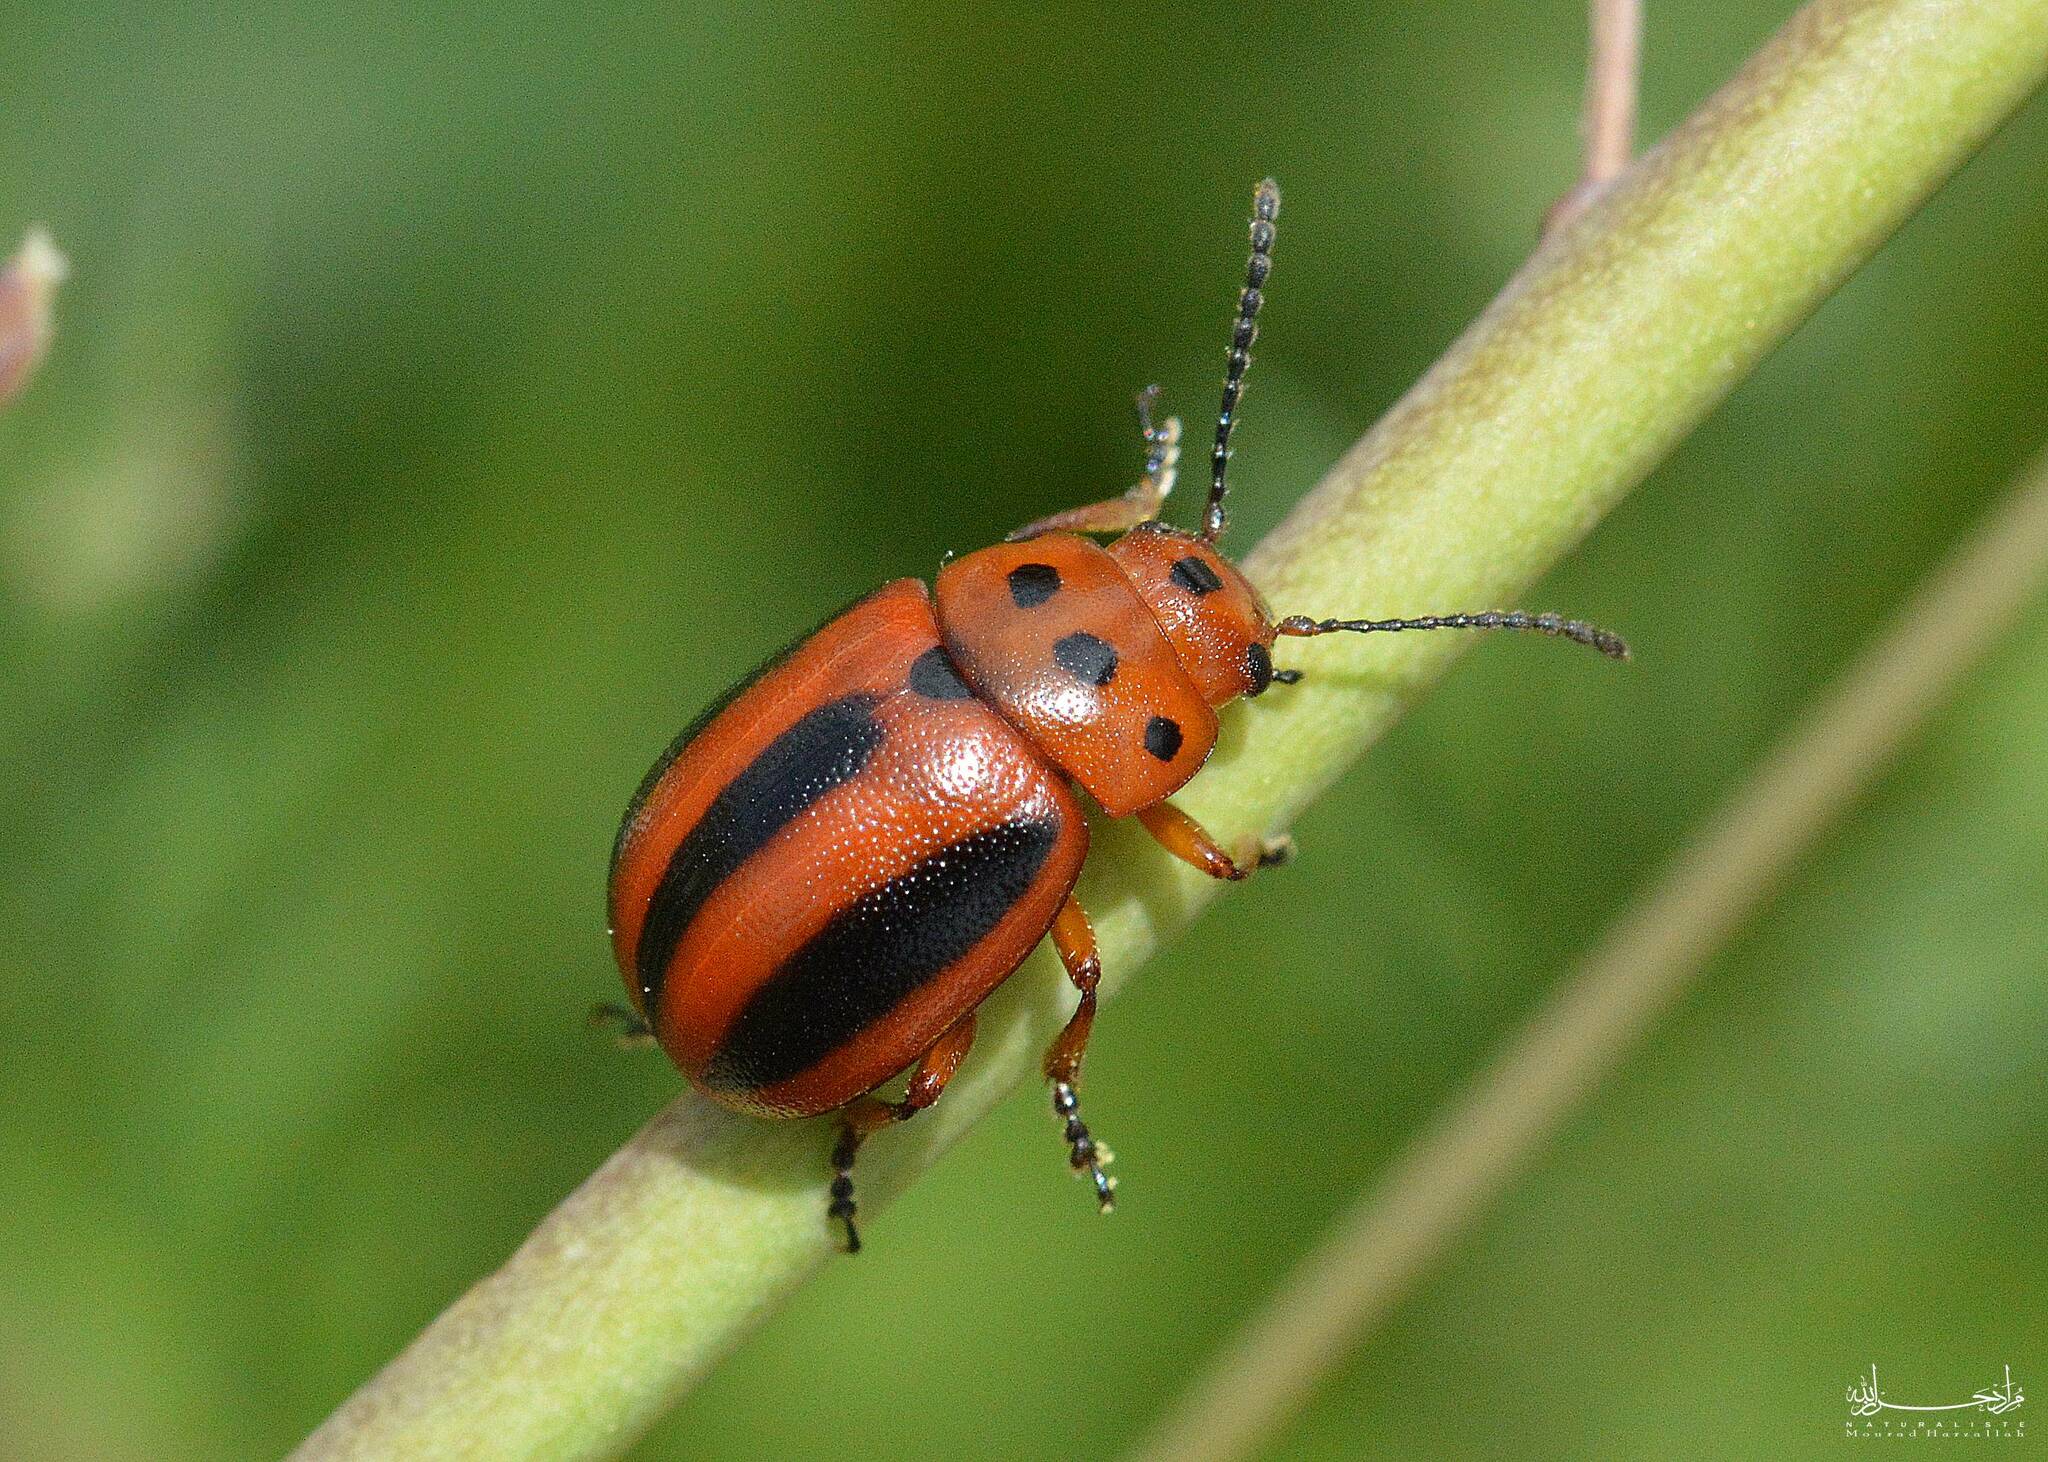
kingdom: Animalia
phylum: Arthropoda
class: Insecta
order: Coleoptera
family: Chrysomelidae
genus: Entomoscelis
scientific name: Entomoscelis rumicis
